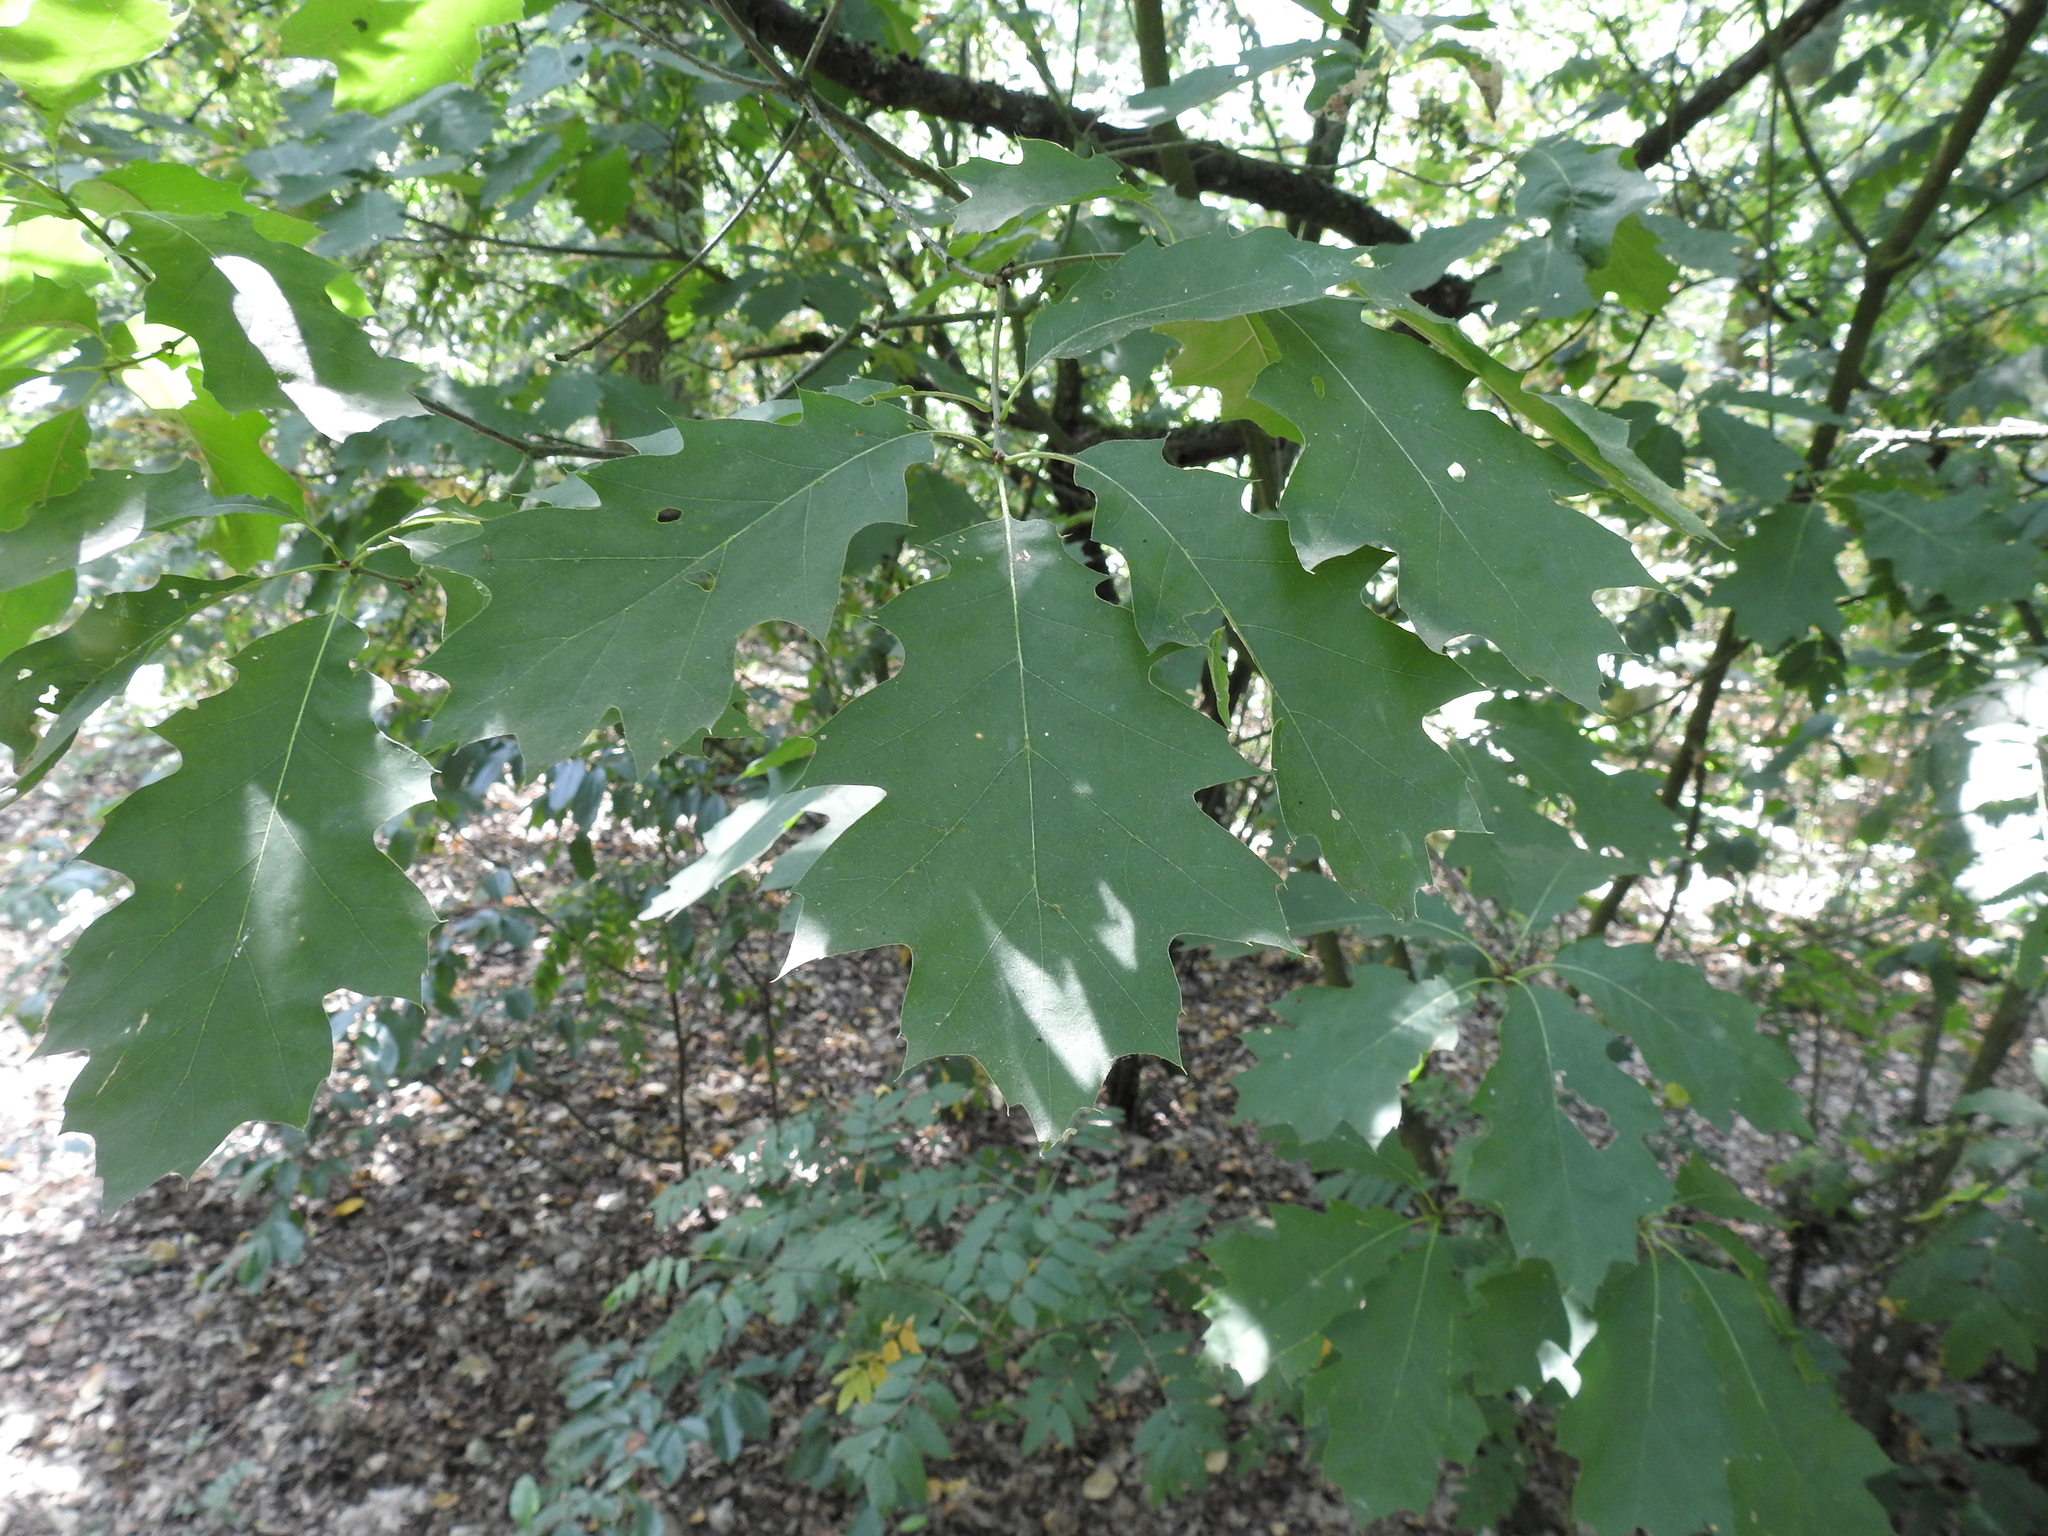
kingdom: Plantae
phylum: Tracheophyta
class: Magnoliopsida
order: Fagales
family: Fagaceae
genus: Quercus
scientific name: Quercus rubra
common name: Red oak
